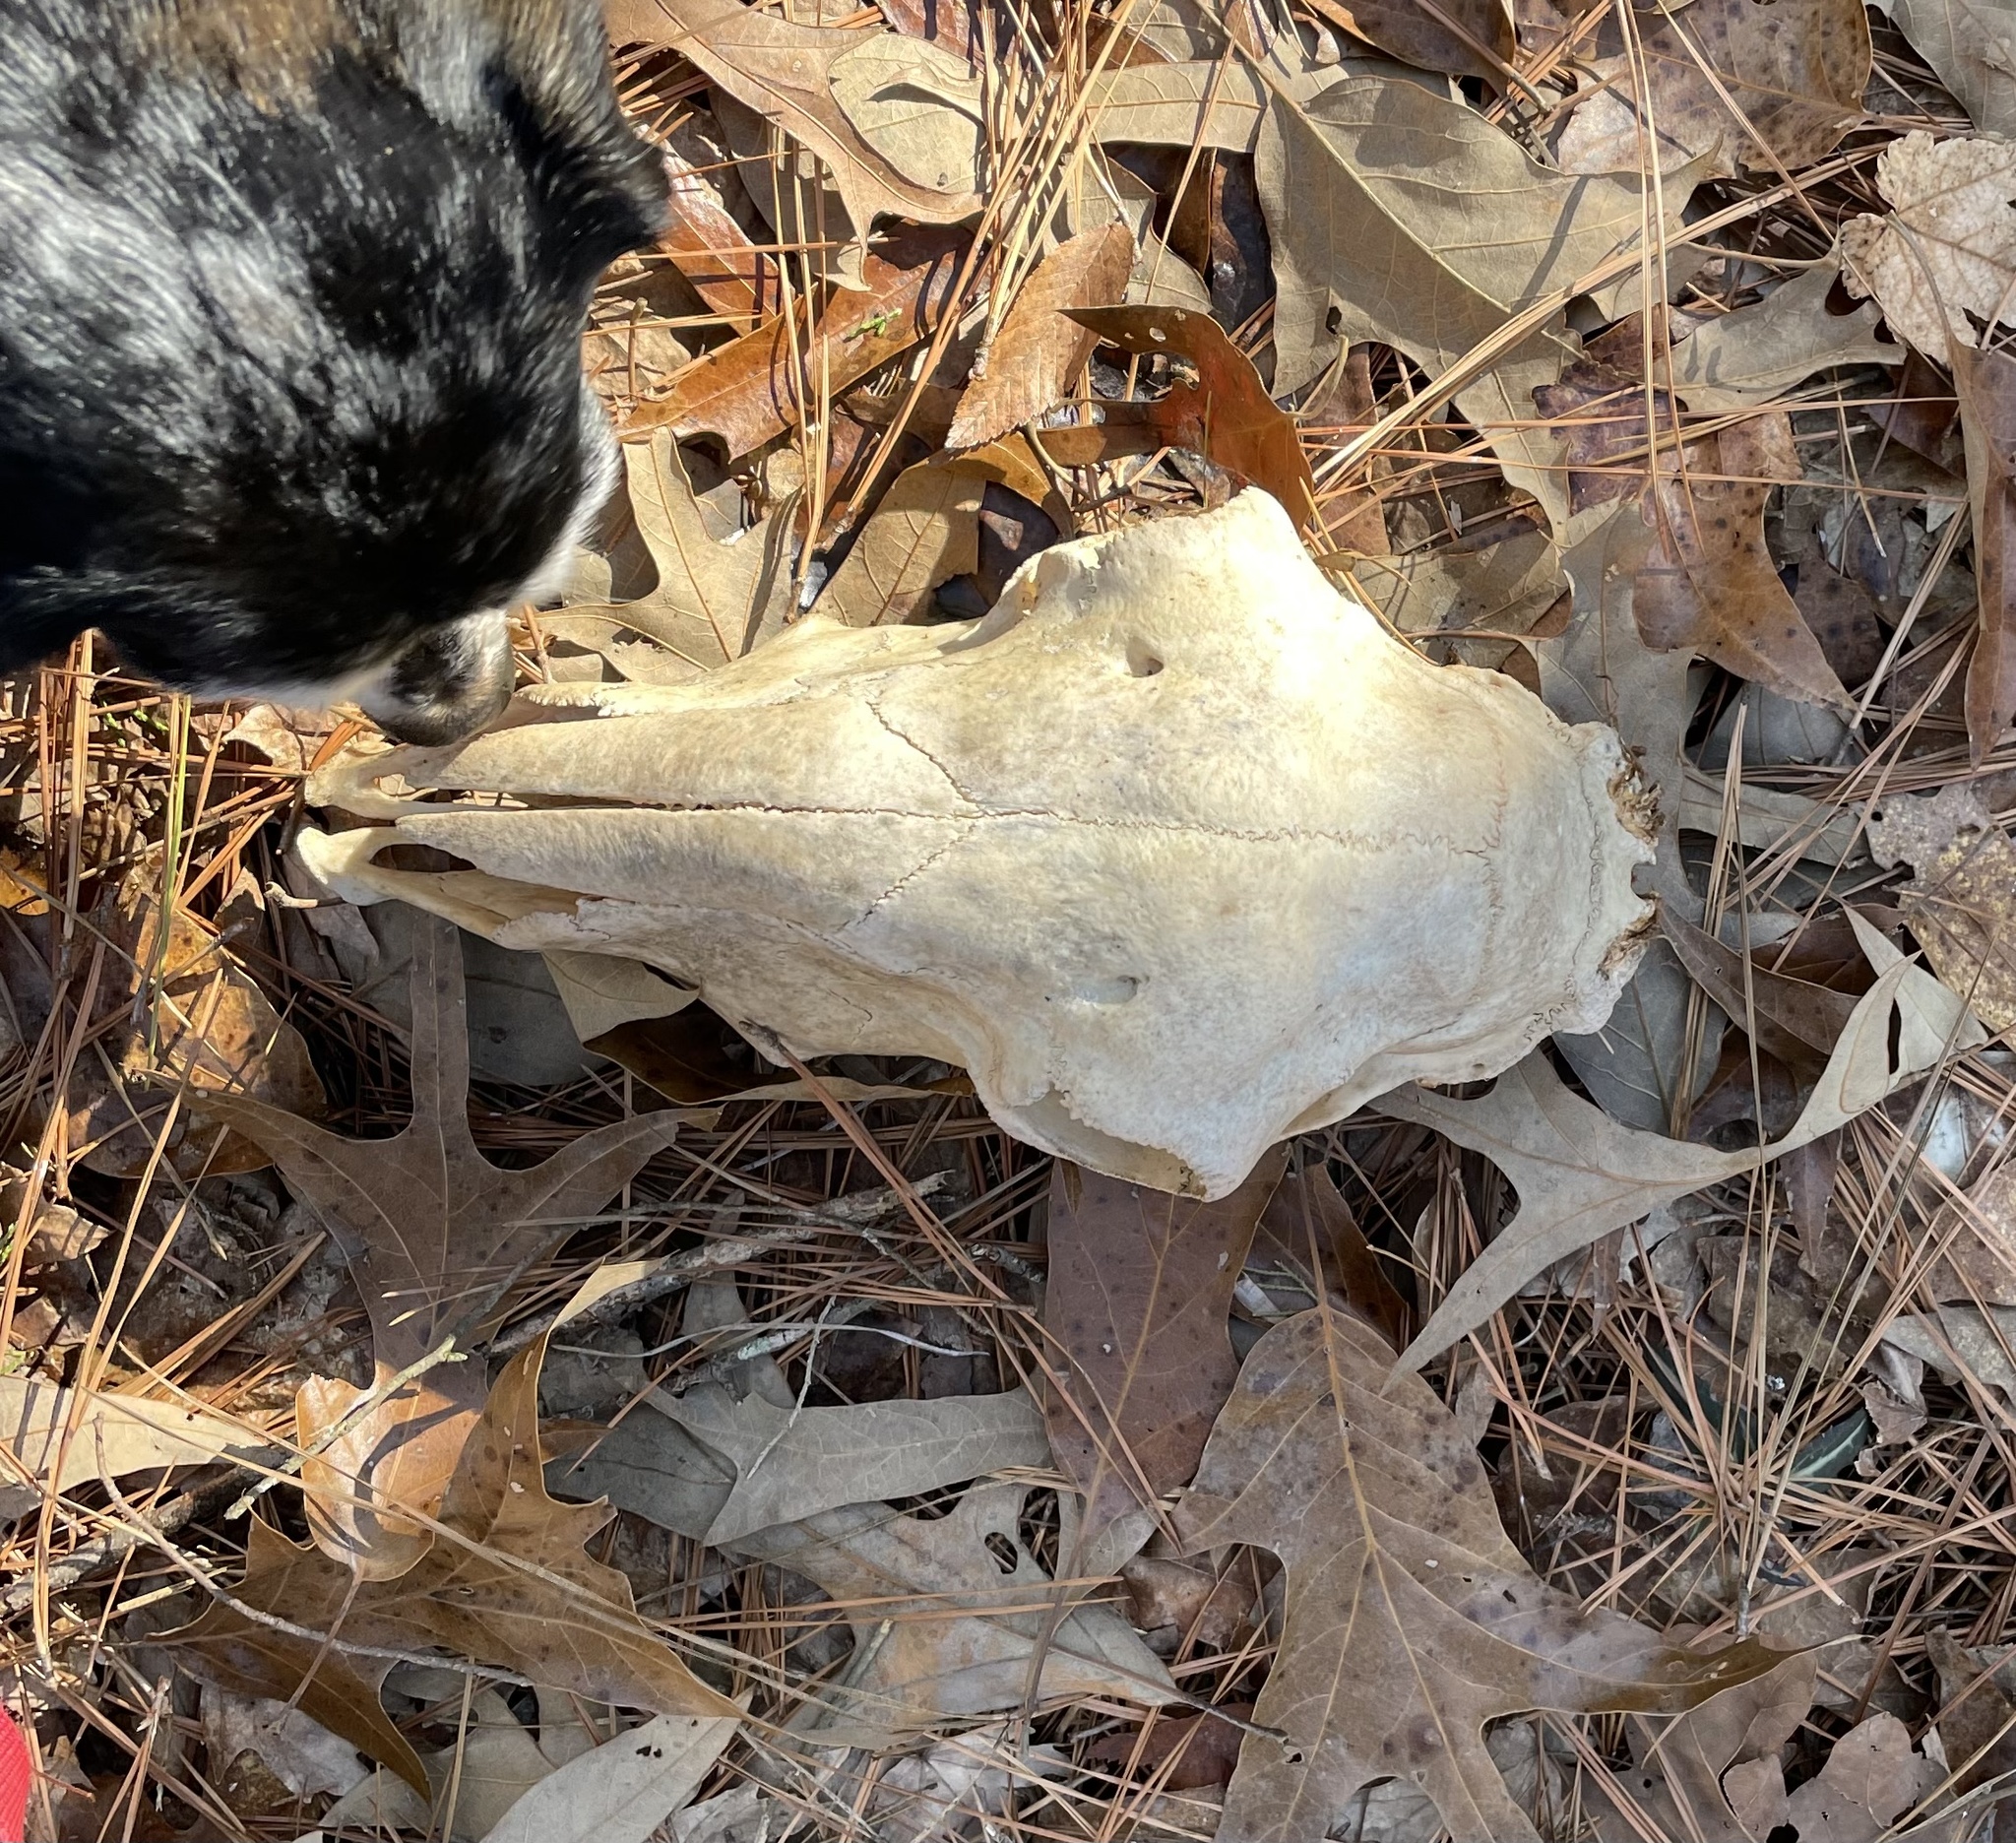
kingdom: Animalia
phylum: Chordata
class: Mammalia
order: Artiodactyla
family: Bovidae
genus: Ovis
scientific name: Ovis aries
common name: Domestic sheep
